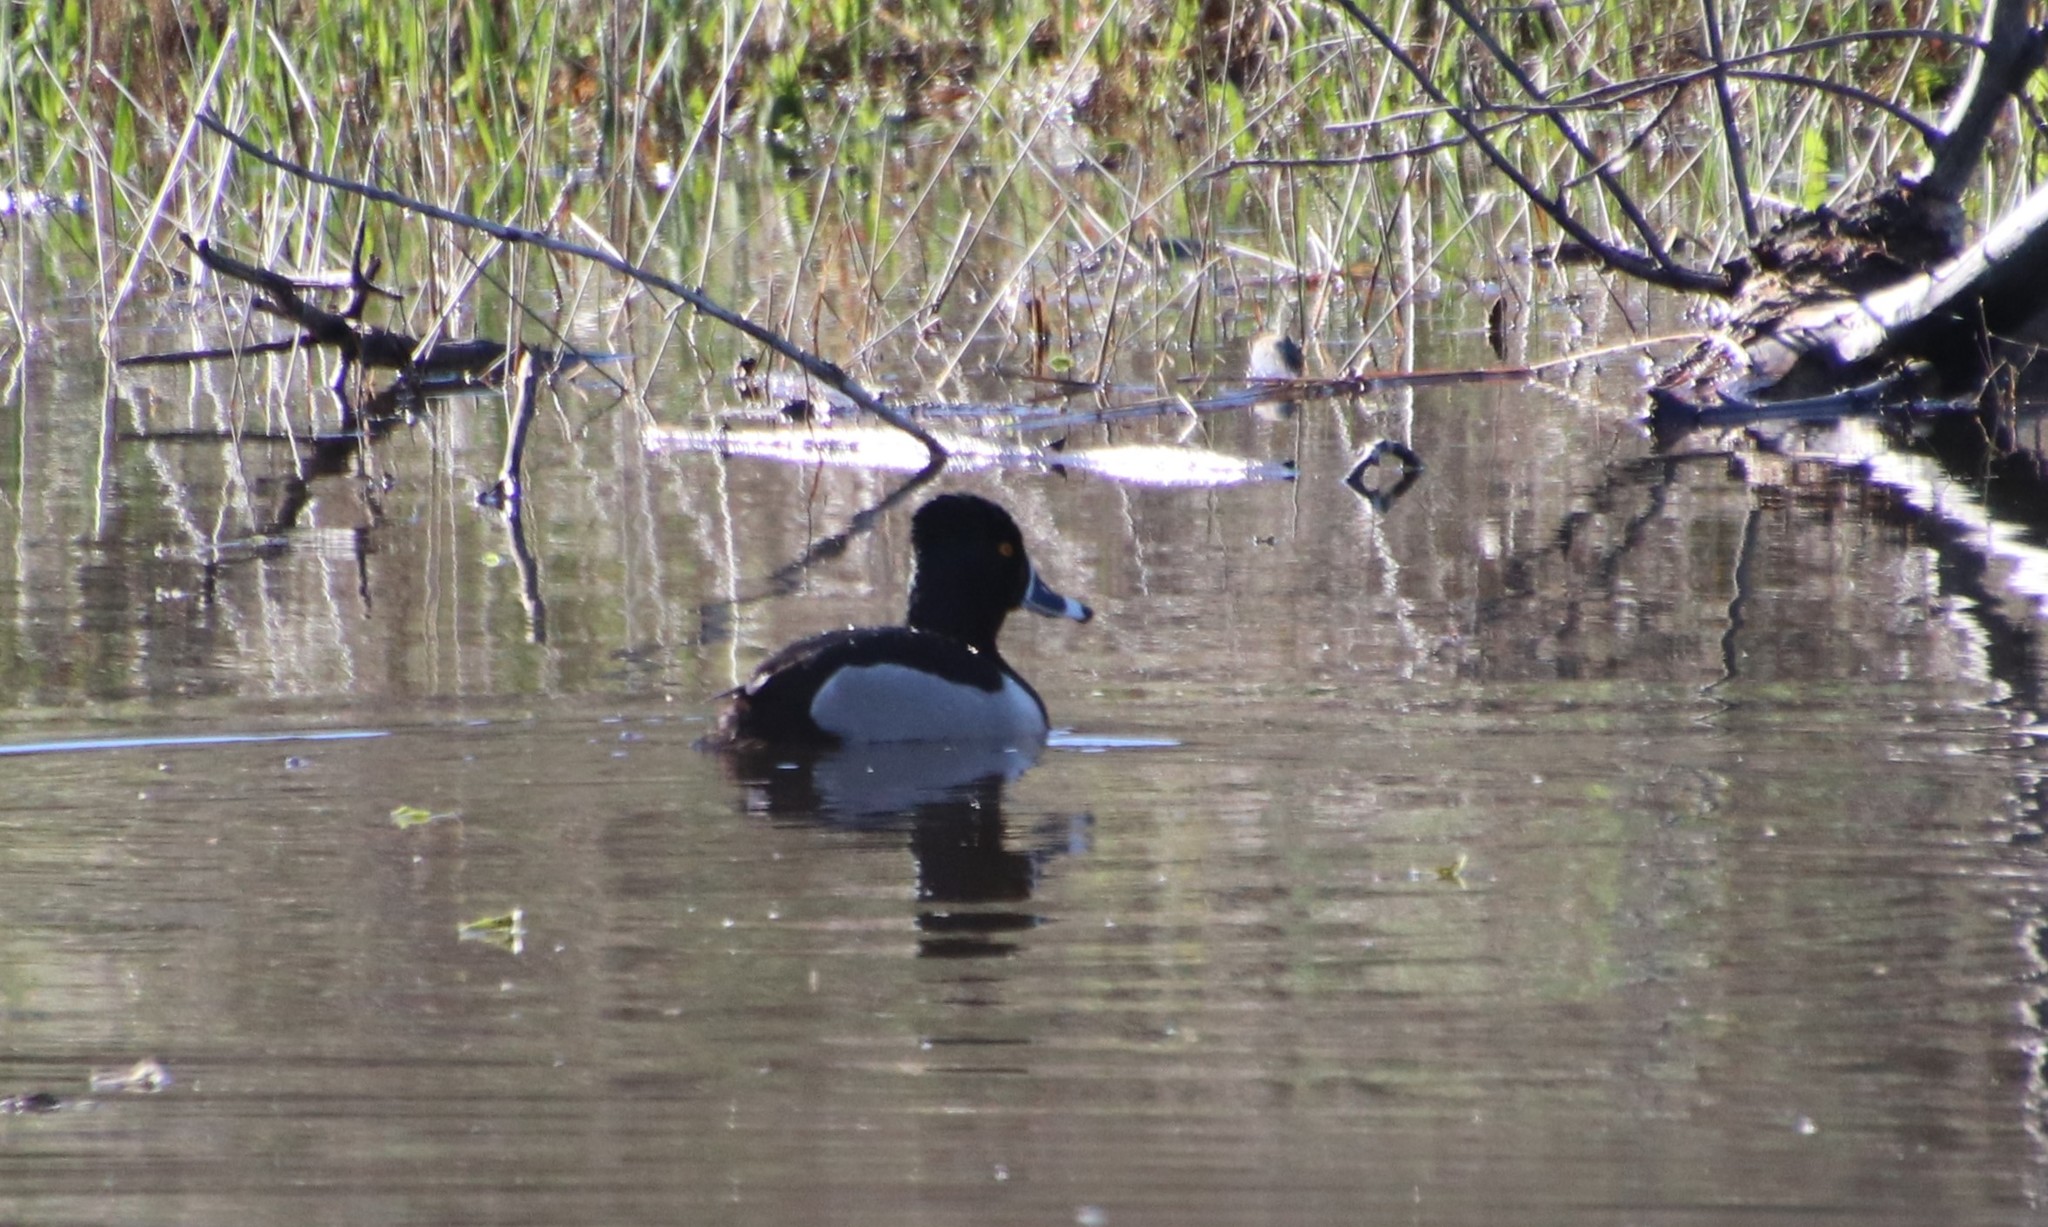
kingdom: Animalia
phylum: Chordata
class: Aves
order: Anseriformes
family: Anatidae
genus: Aythya
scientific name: Aythya collaris
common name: Ring-necked duck
